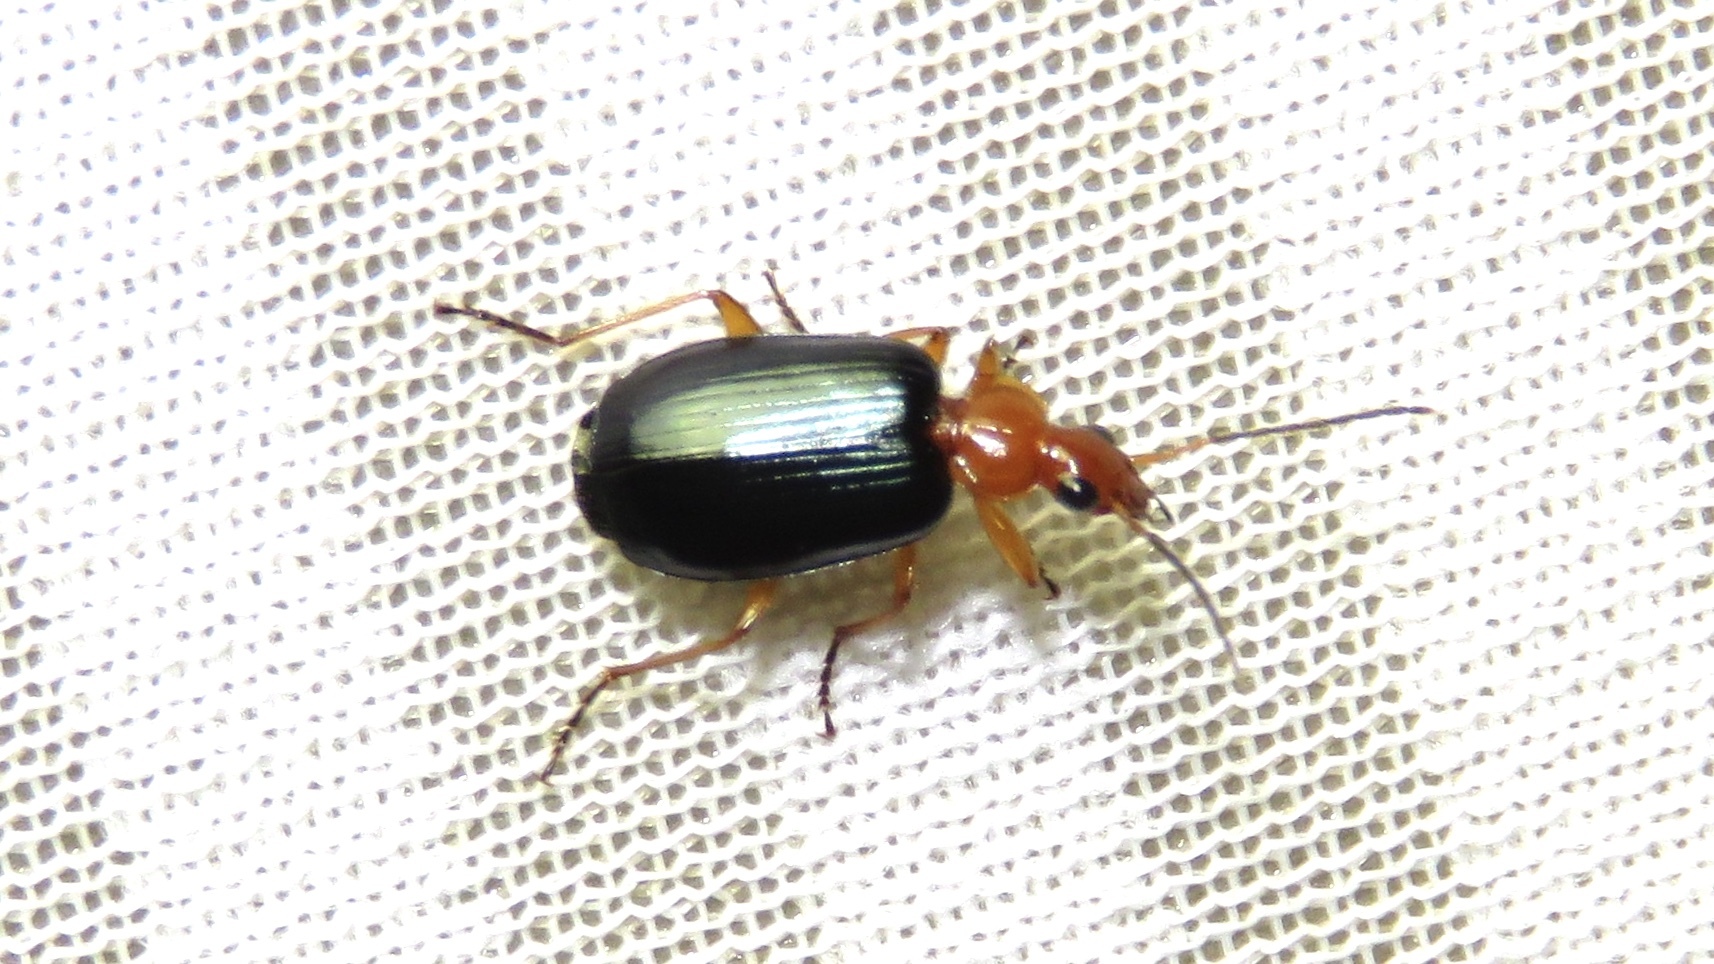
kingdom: Animalia
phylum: Arthropoda
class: Insecta
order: Coleoptera
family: Carabidae
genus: Lebia
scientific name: Lebia atriventris
